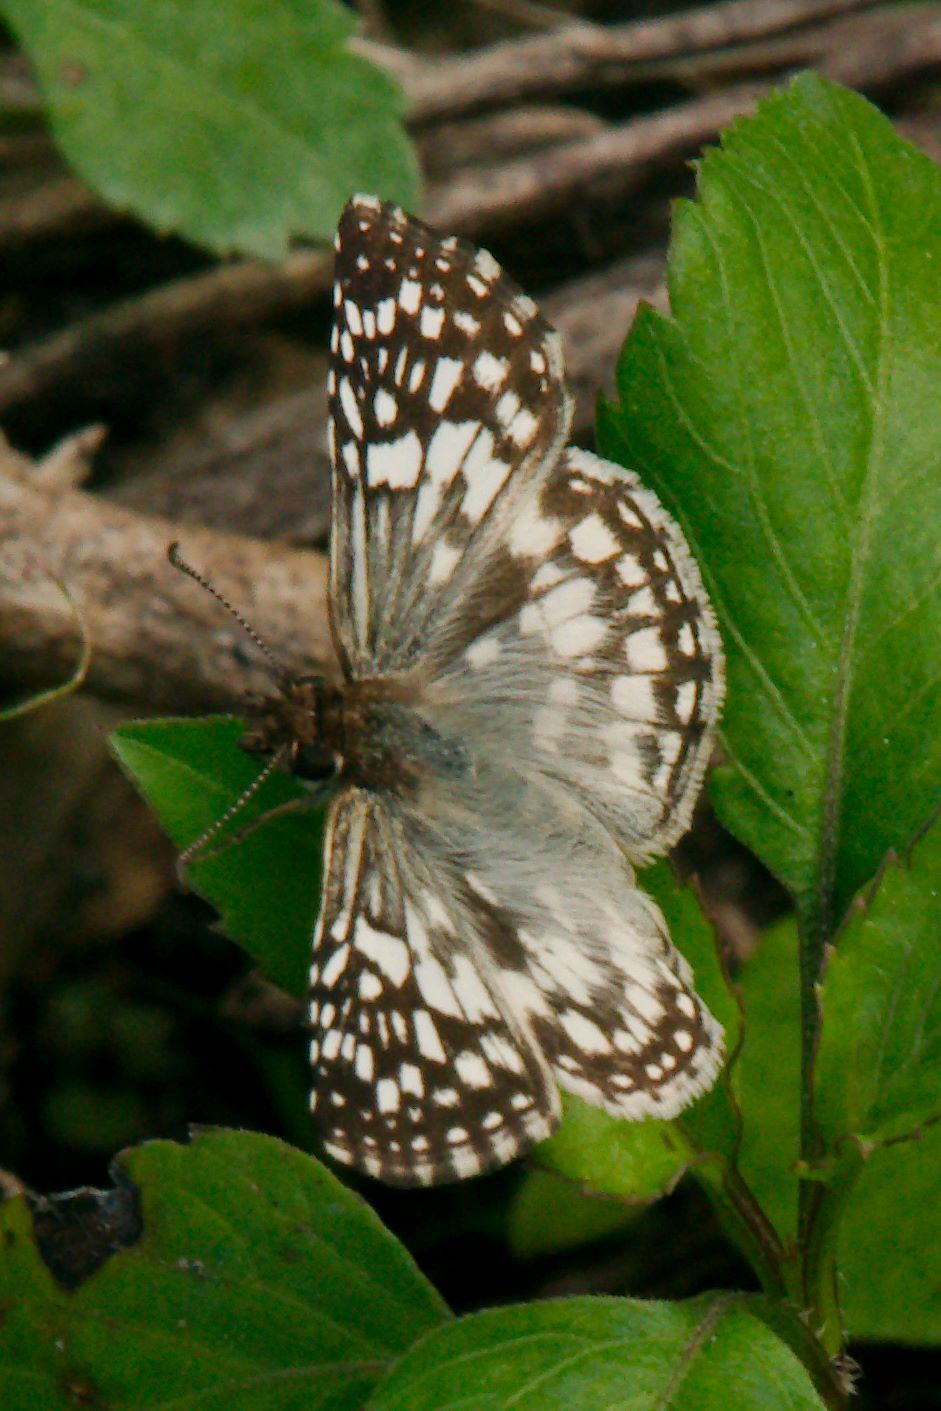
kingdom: Animalia
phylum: Arthropoda
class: Insecta
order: Lepidoptera
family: Hesperiidae
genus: Pyrgus
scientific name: Pyrgus oileus
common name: Tropical checkered-skipper
